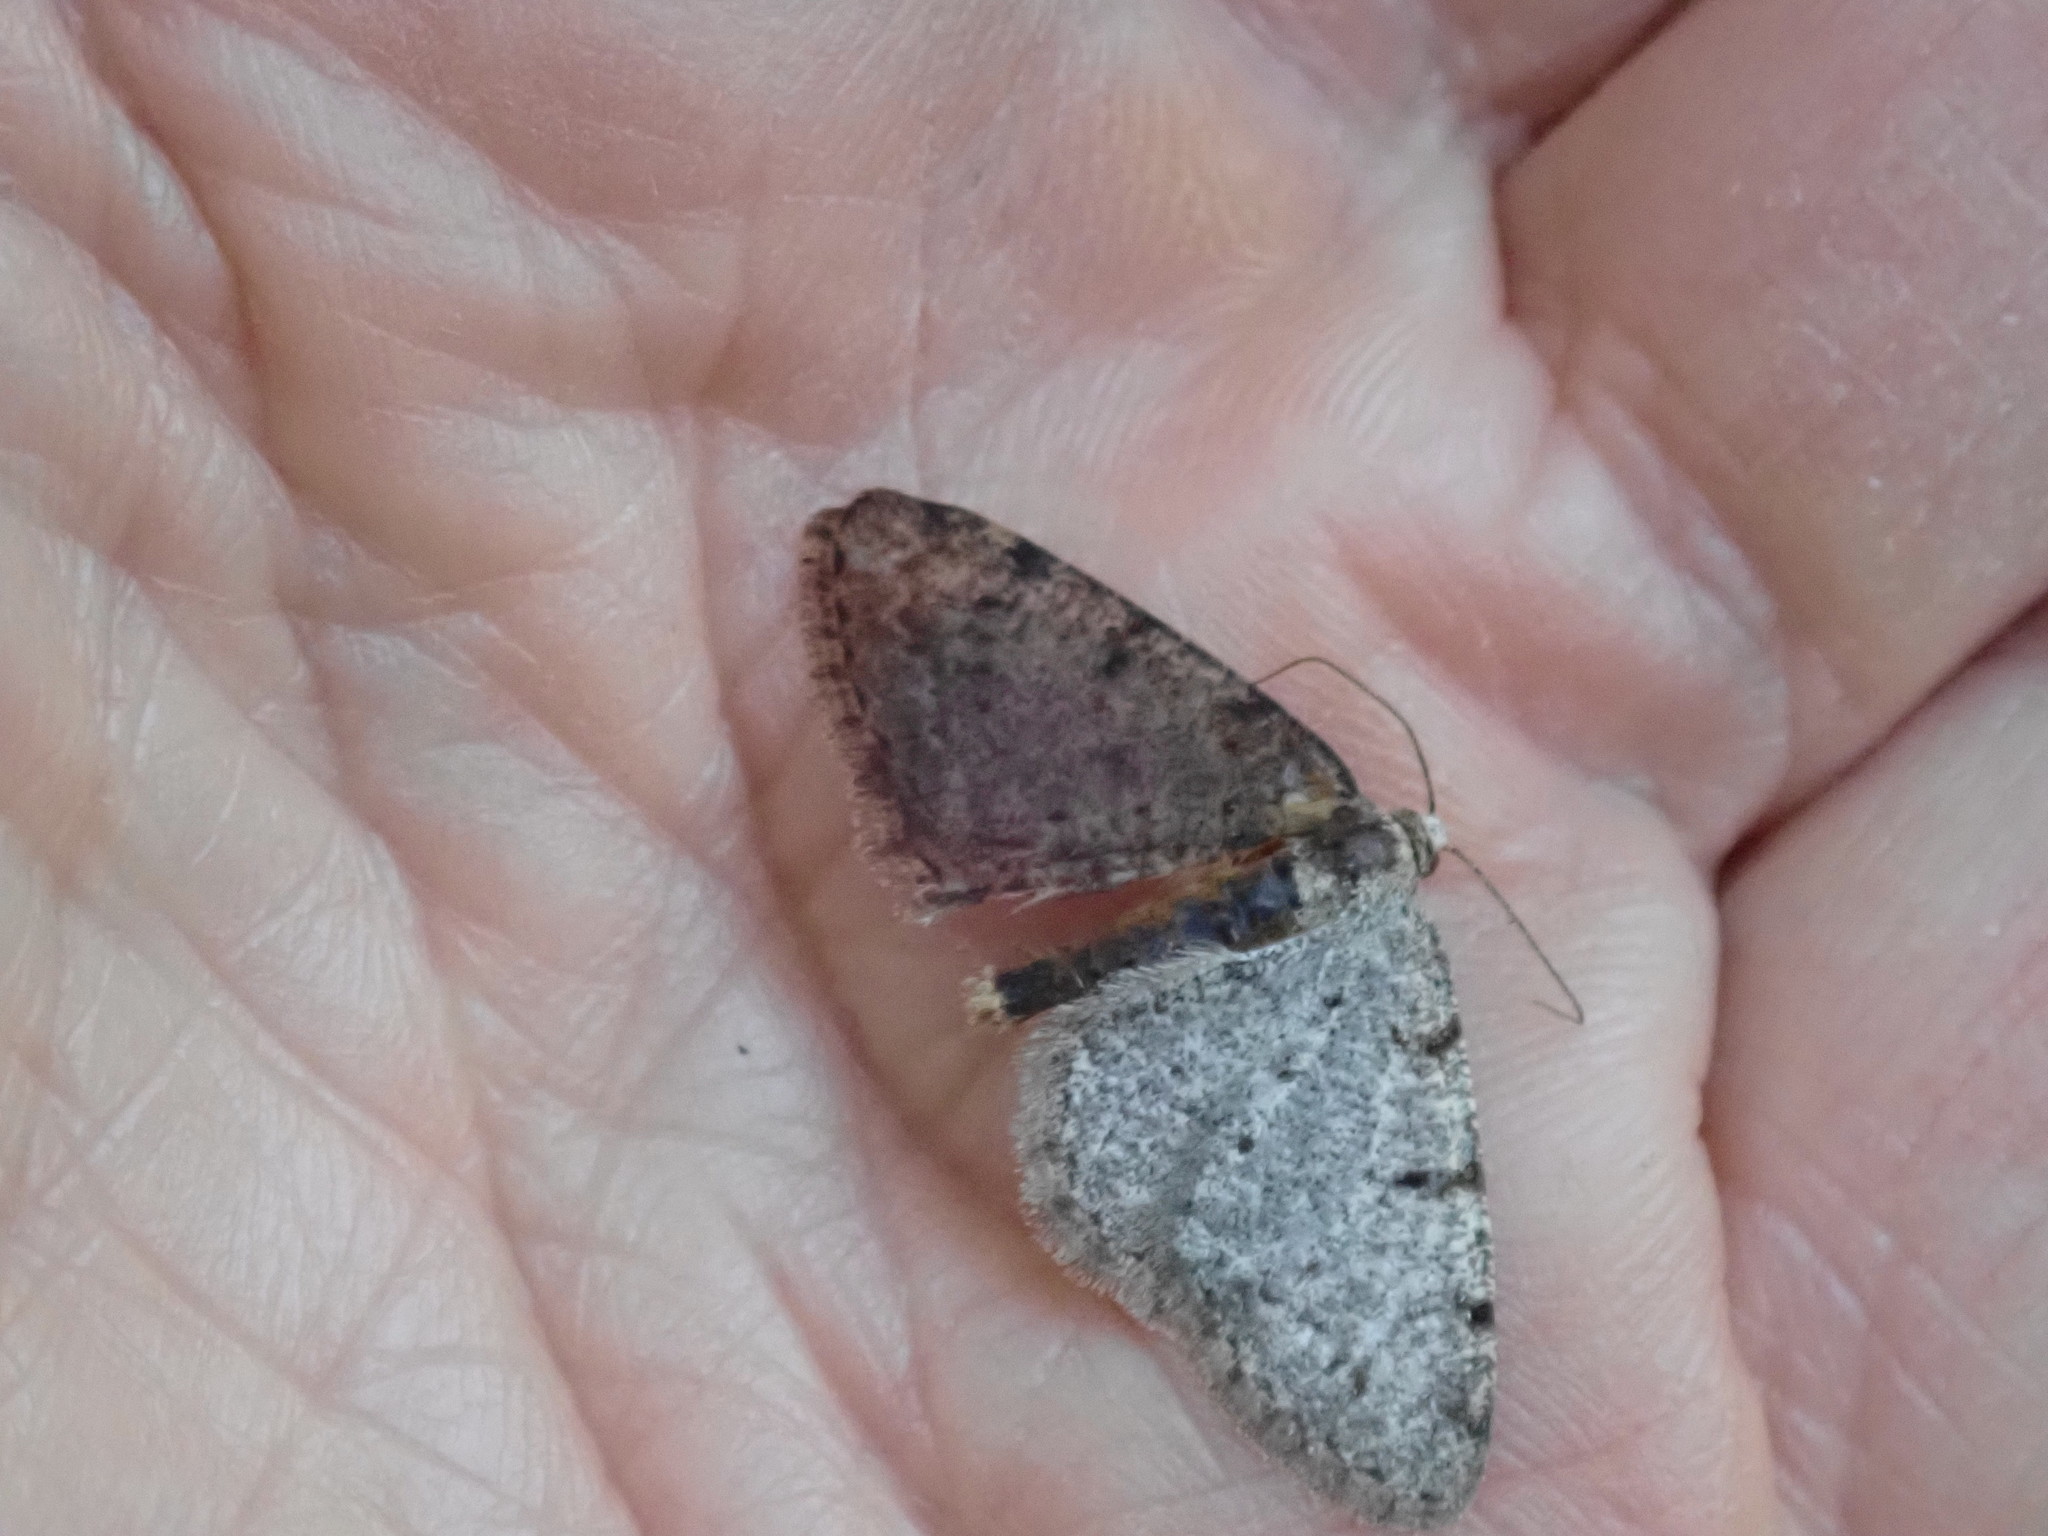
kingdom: Animalia
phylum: Arthropoda
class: Insecta
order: Lepidoptera
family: Geometridae
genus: Aethalura
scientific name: Aethalura intertexta
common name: Four-barred gray
